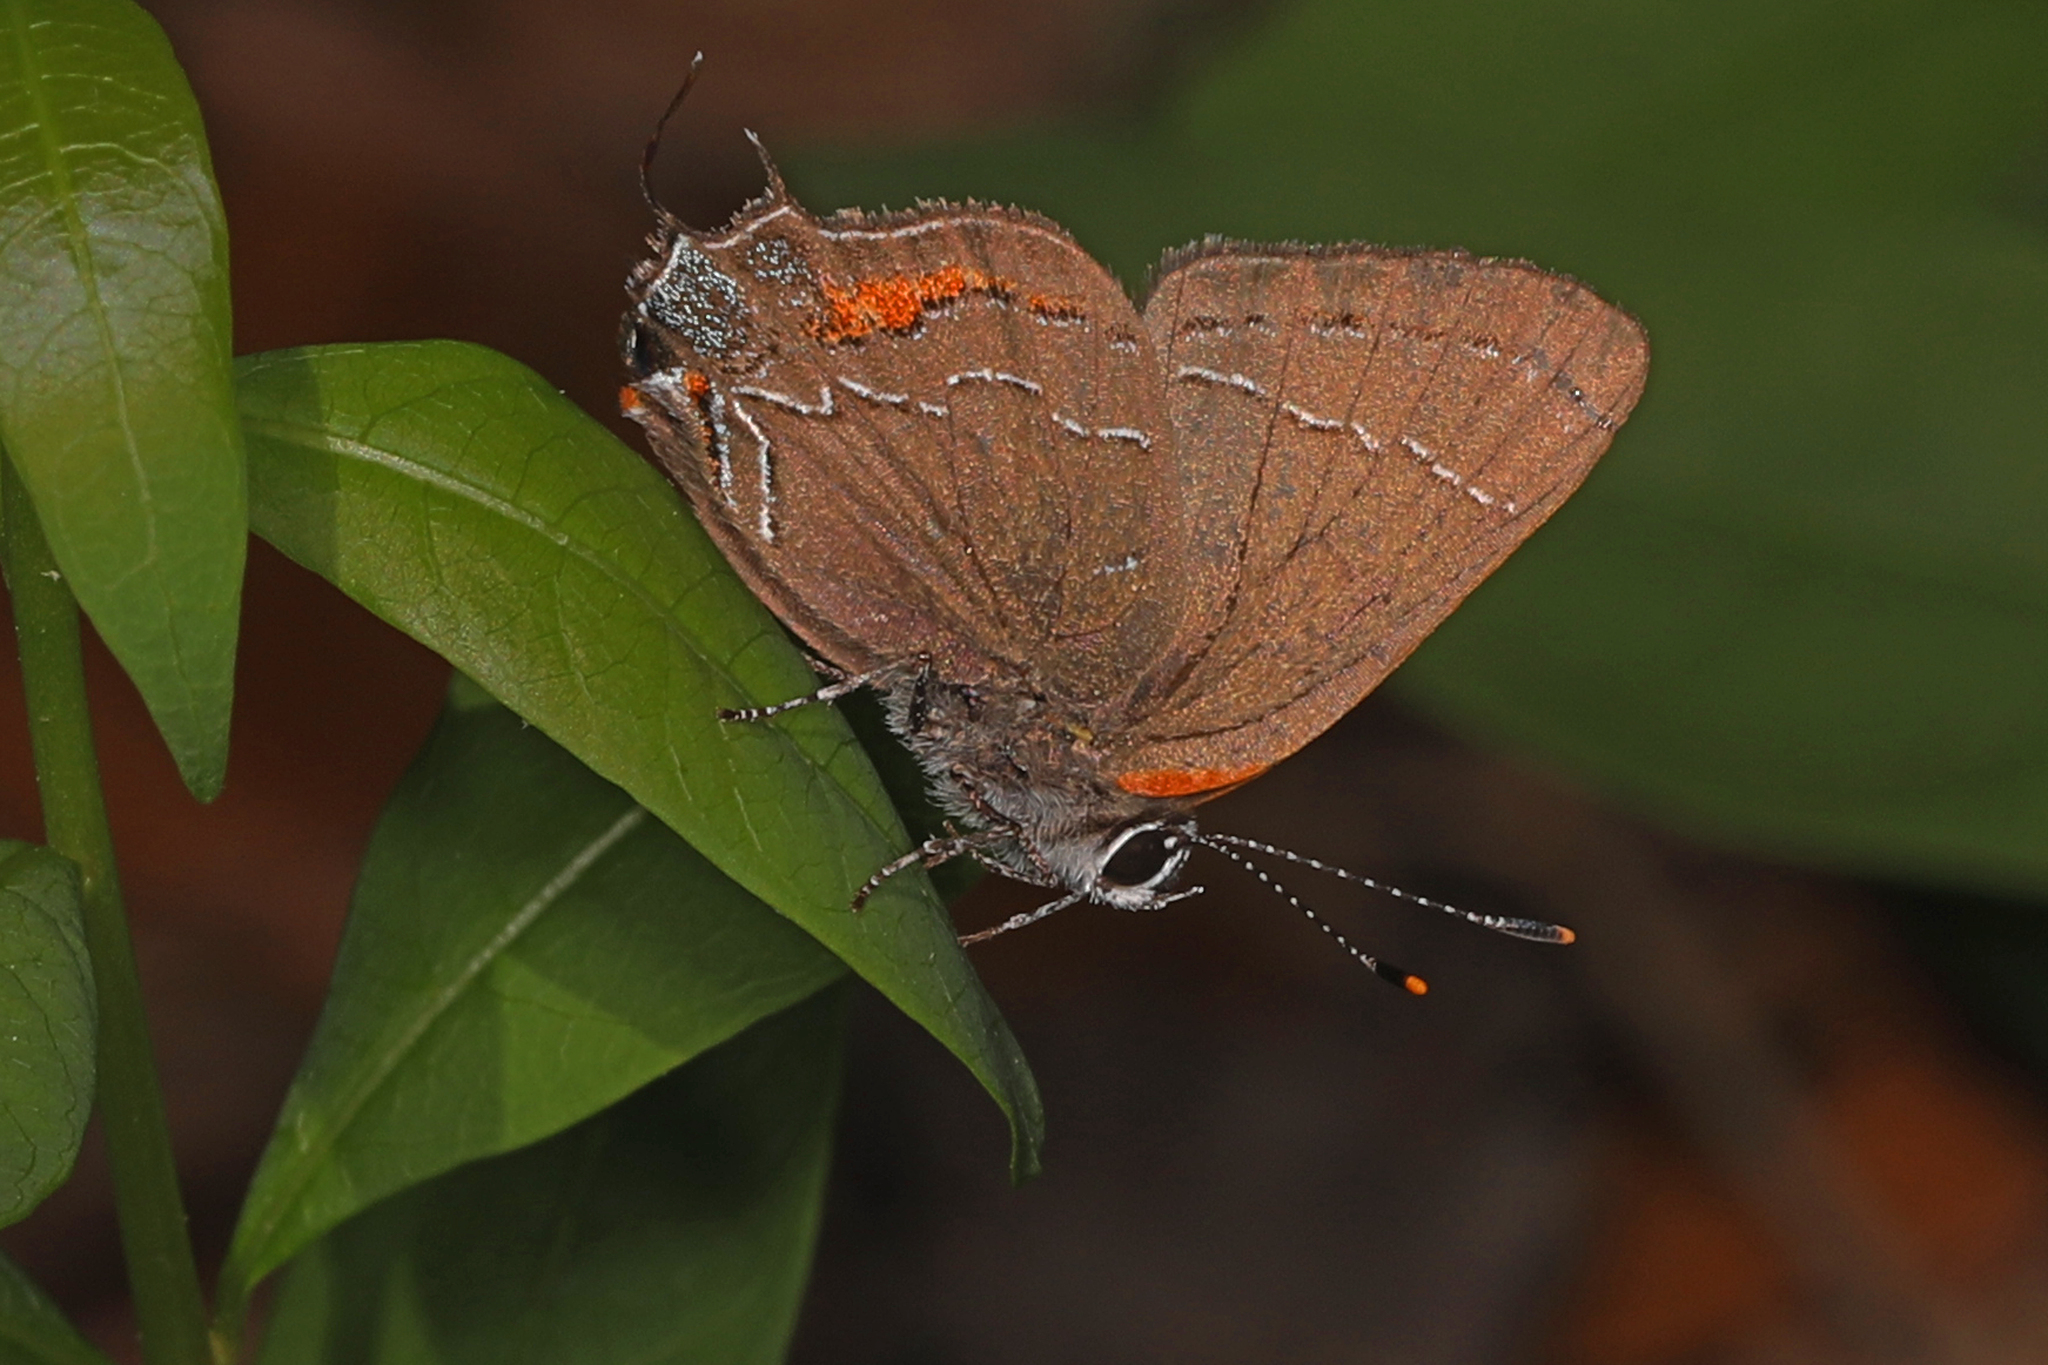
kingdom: Animalia
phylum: Arthropoda
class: Insecta
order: Lepidoptera
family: Lycaenidae
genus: Fixsenia
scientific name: Fixsenia favonius
